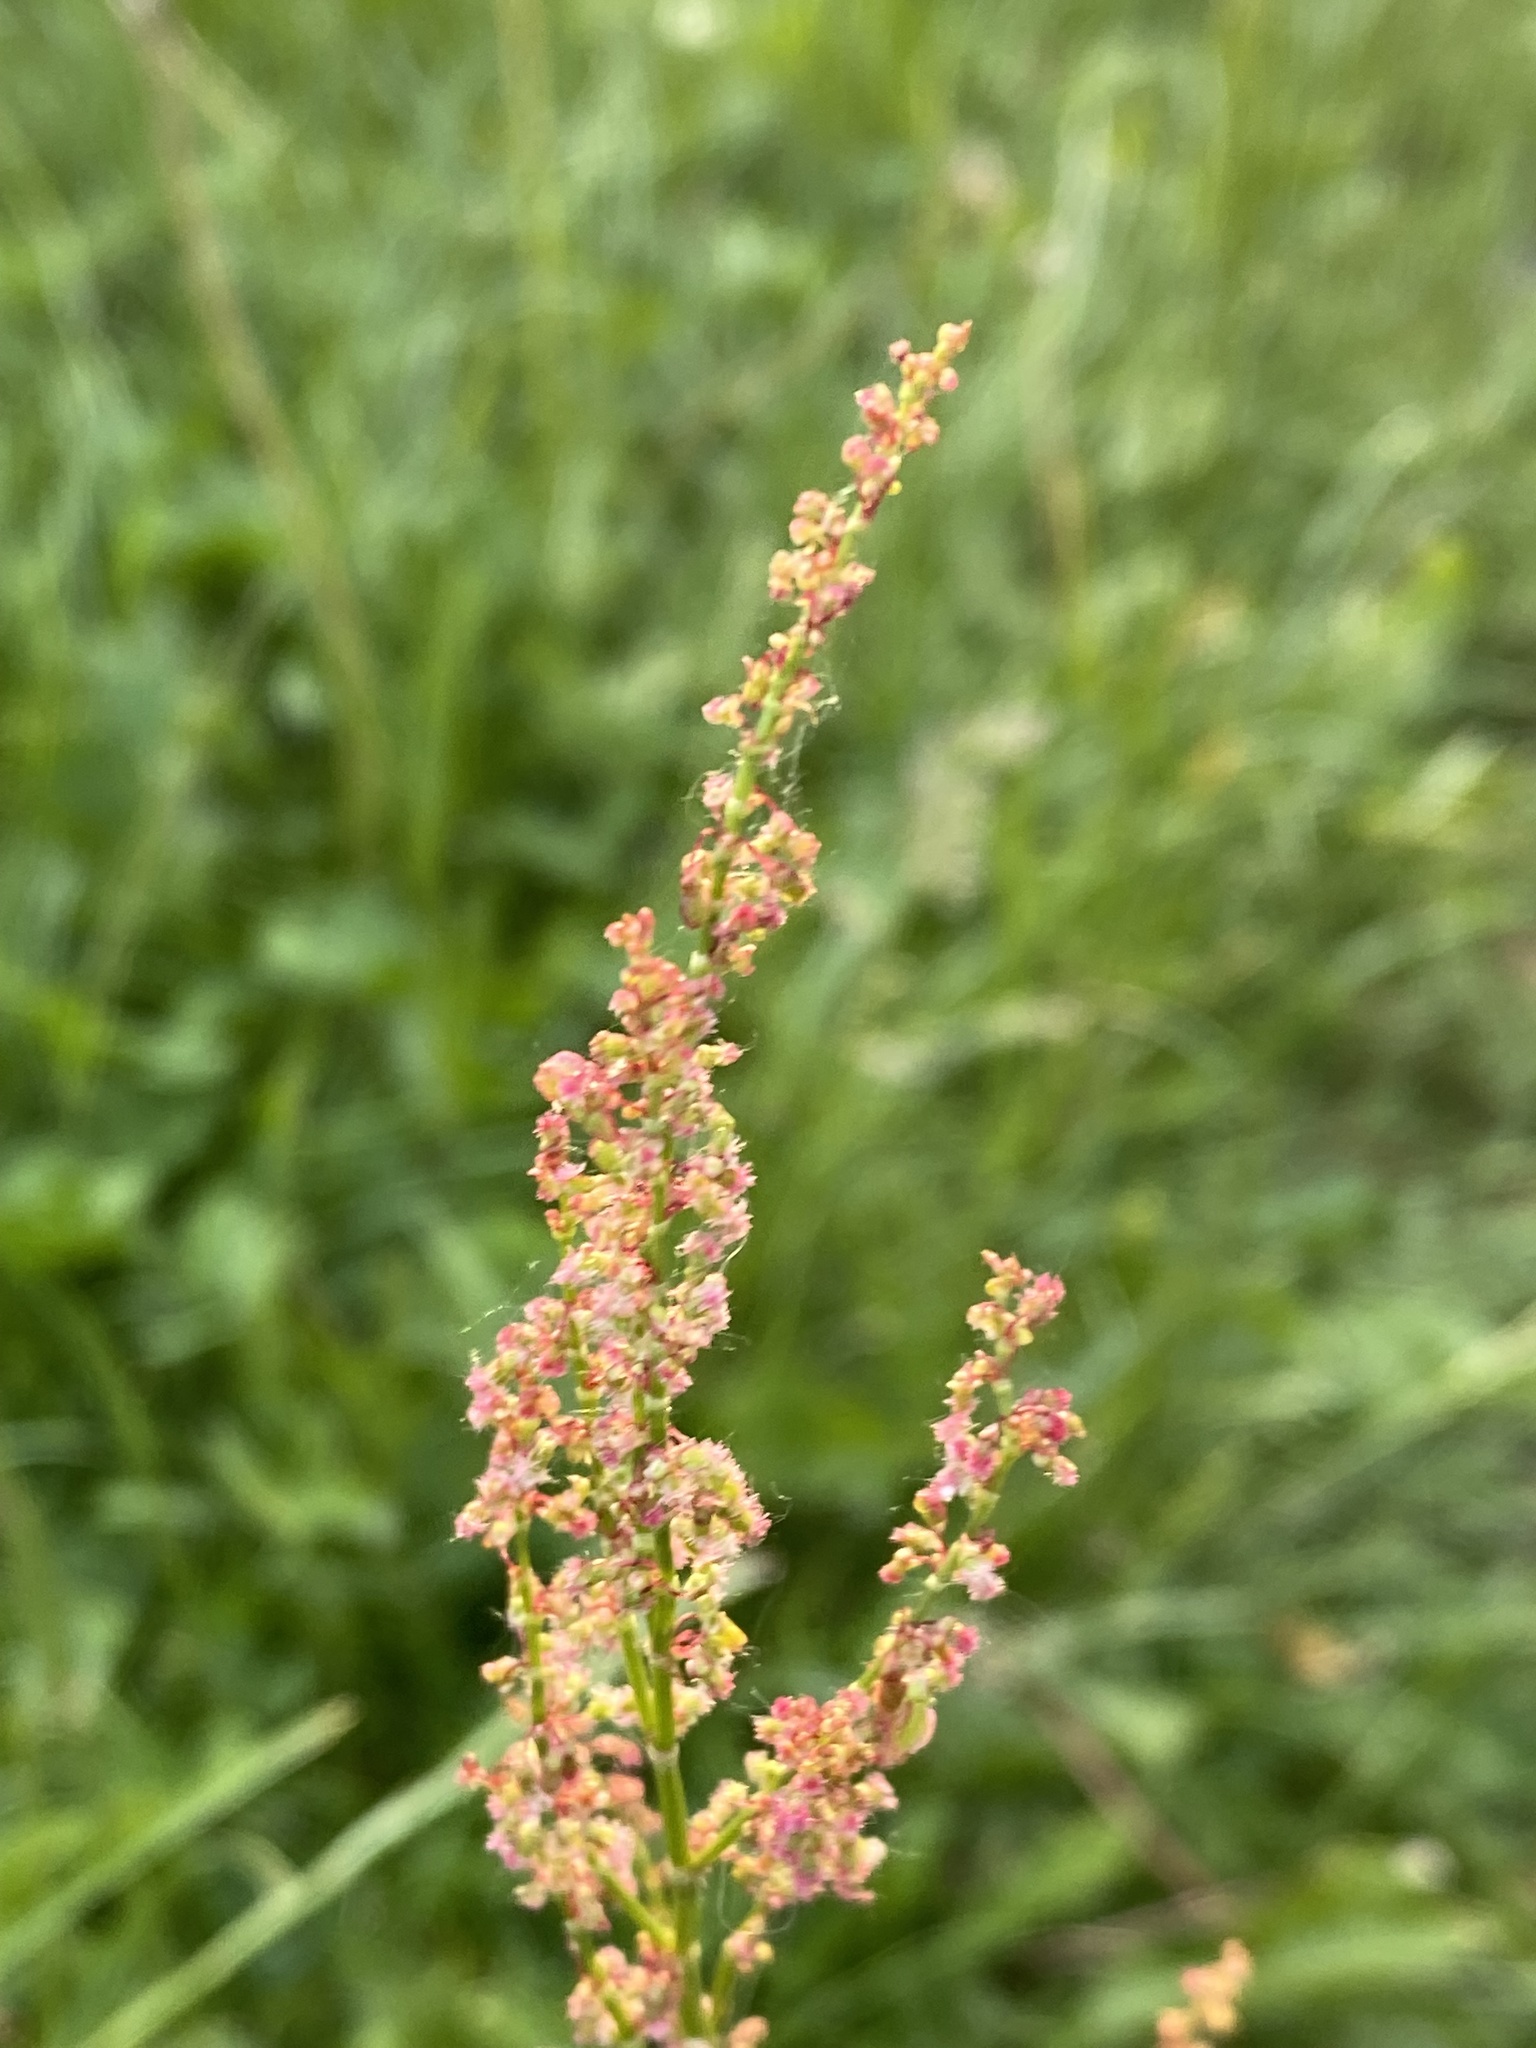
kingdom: Plantae
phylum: Tracheophyta
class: Magnoliopsida
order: Caryophyllales
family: Polygonaceae
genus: Rumex
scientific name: Rumex acetosa
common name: Garden sorrel
